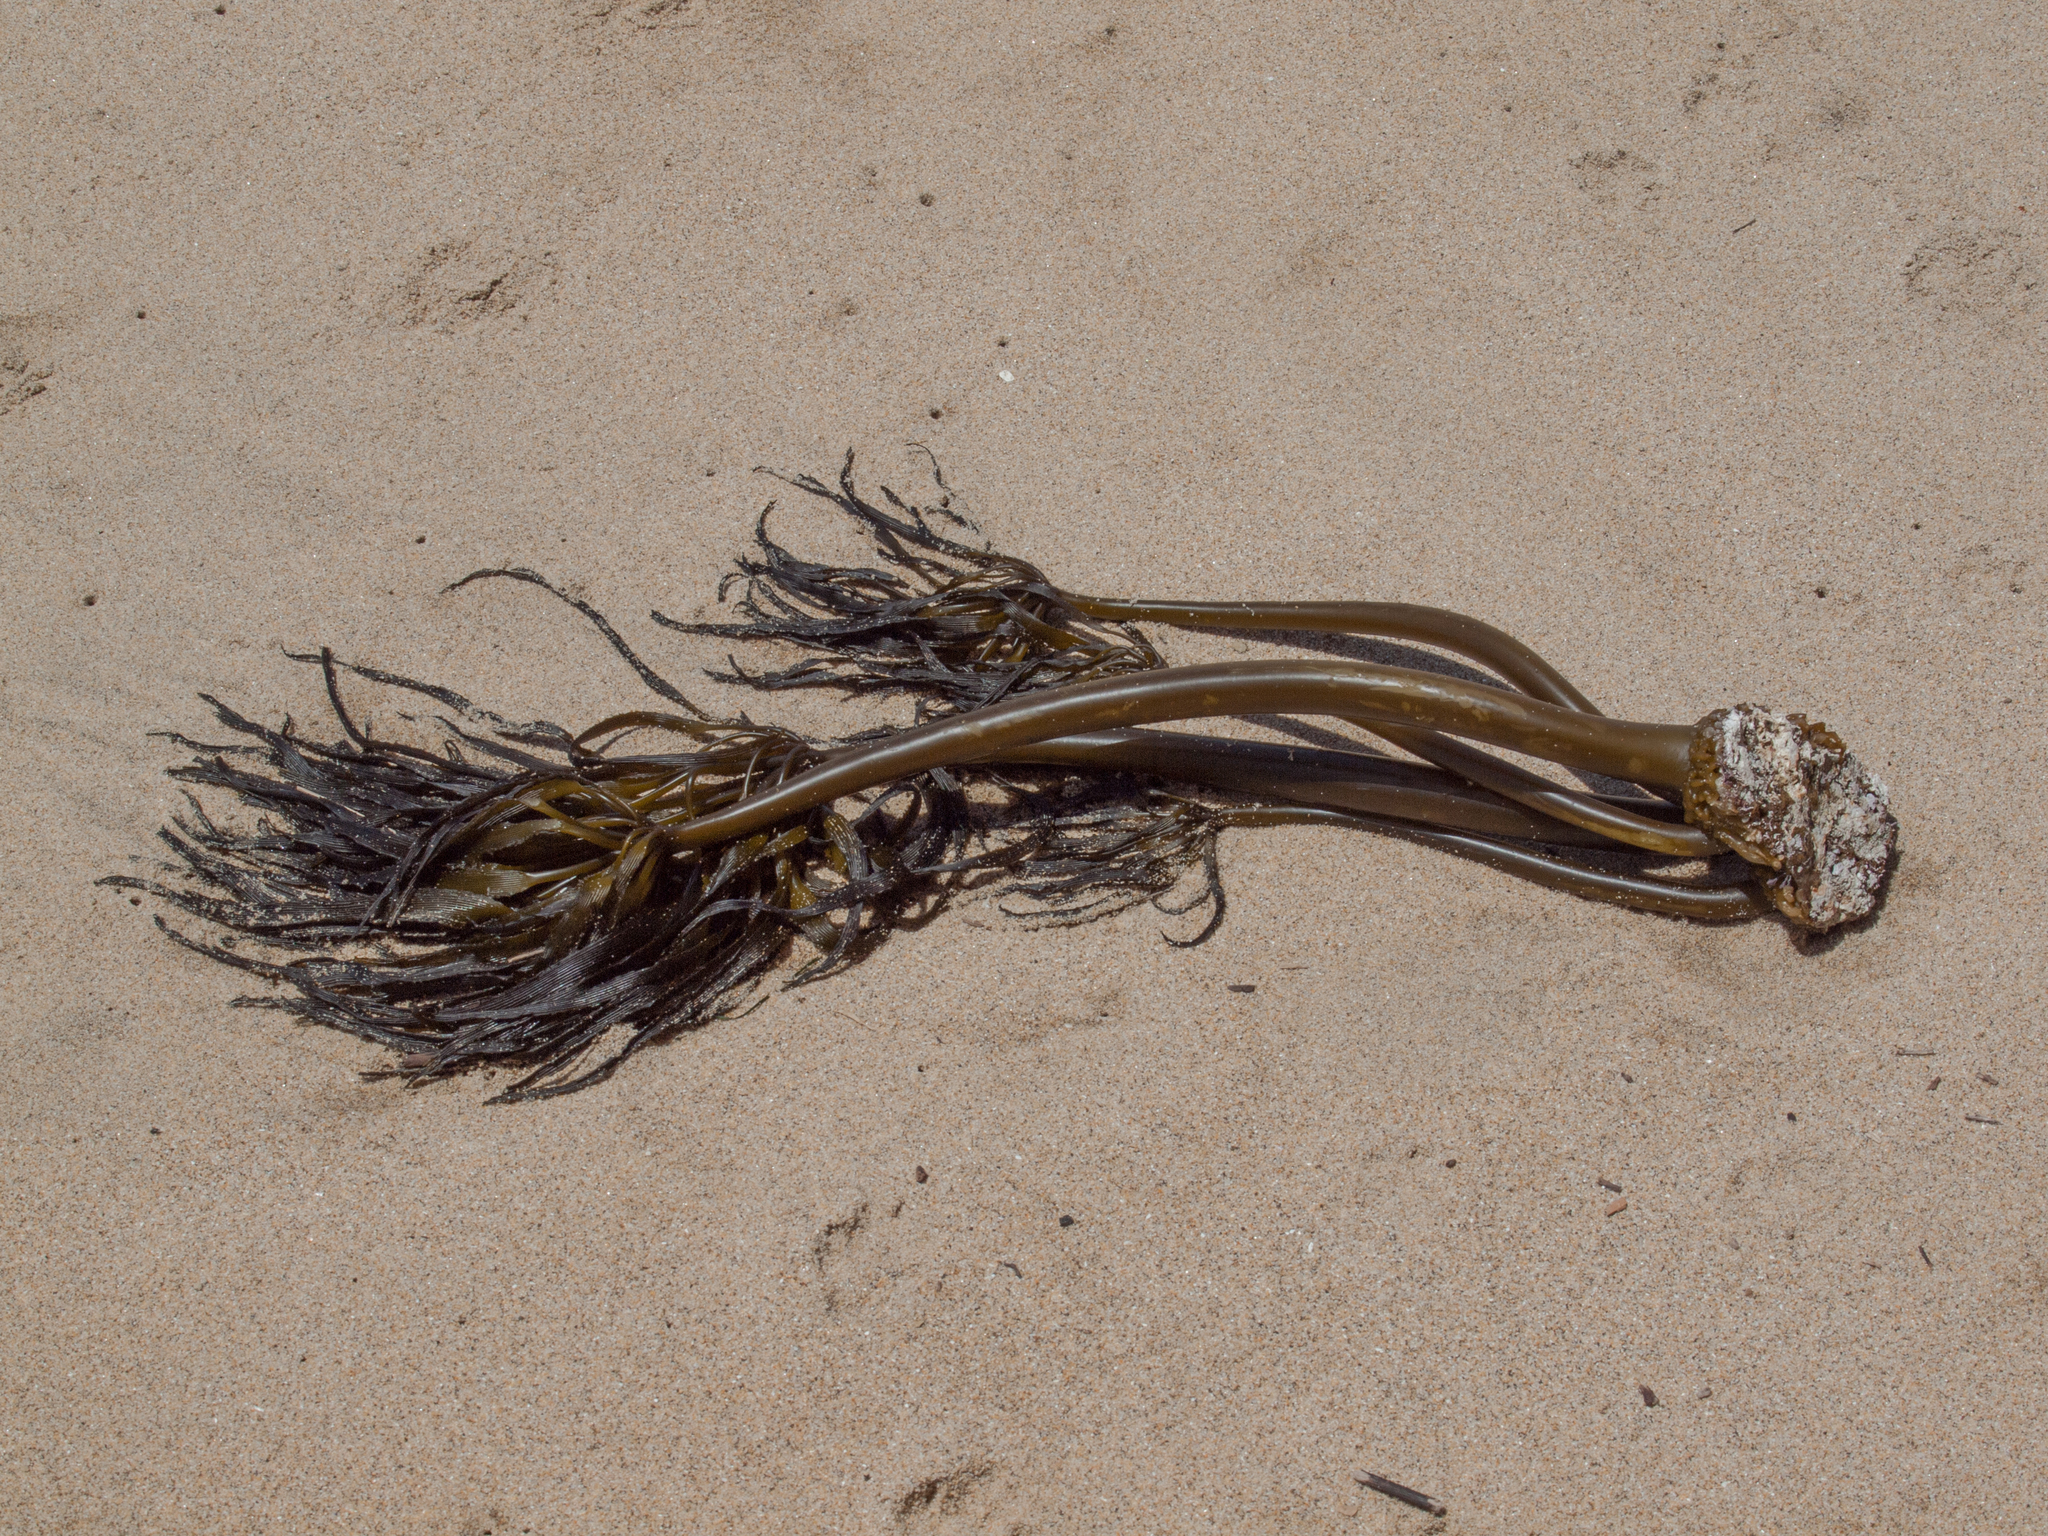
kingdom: Chromista
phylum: Ochrophyta
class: Phaeophyceae
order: Laminariales
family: Laminariaceae
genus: Postelsia
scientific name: Postelsia palmiformis
